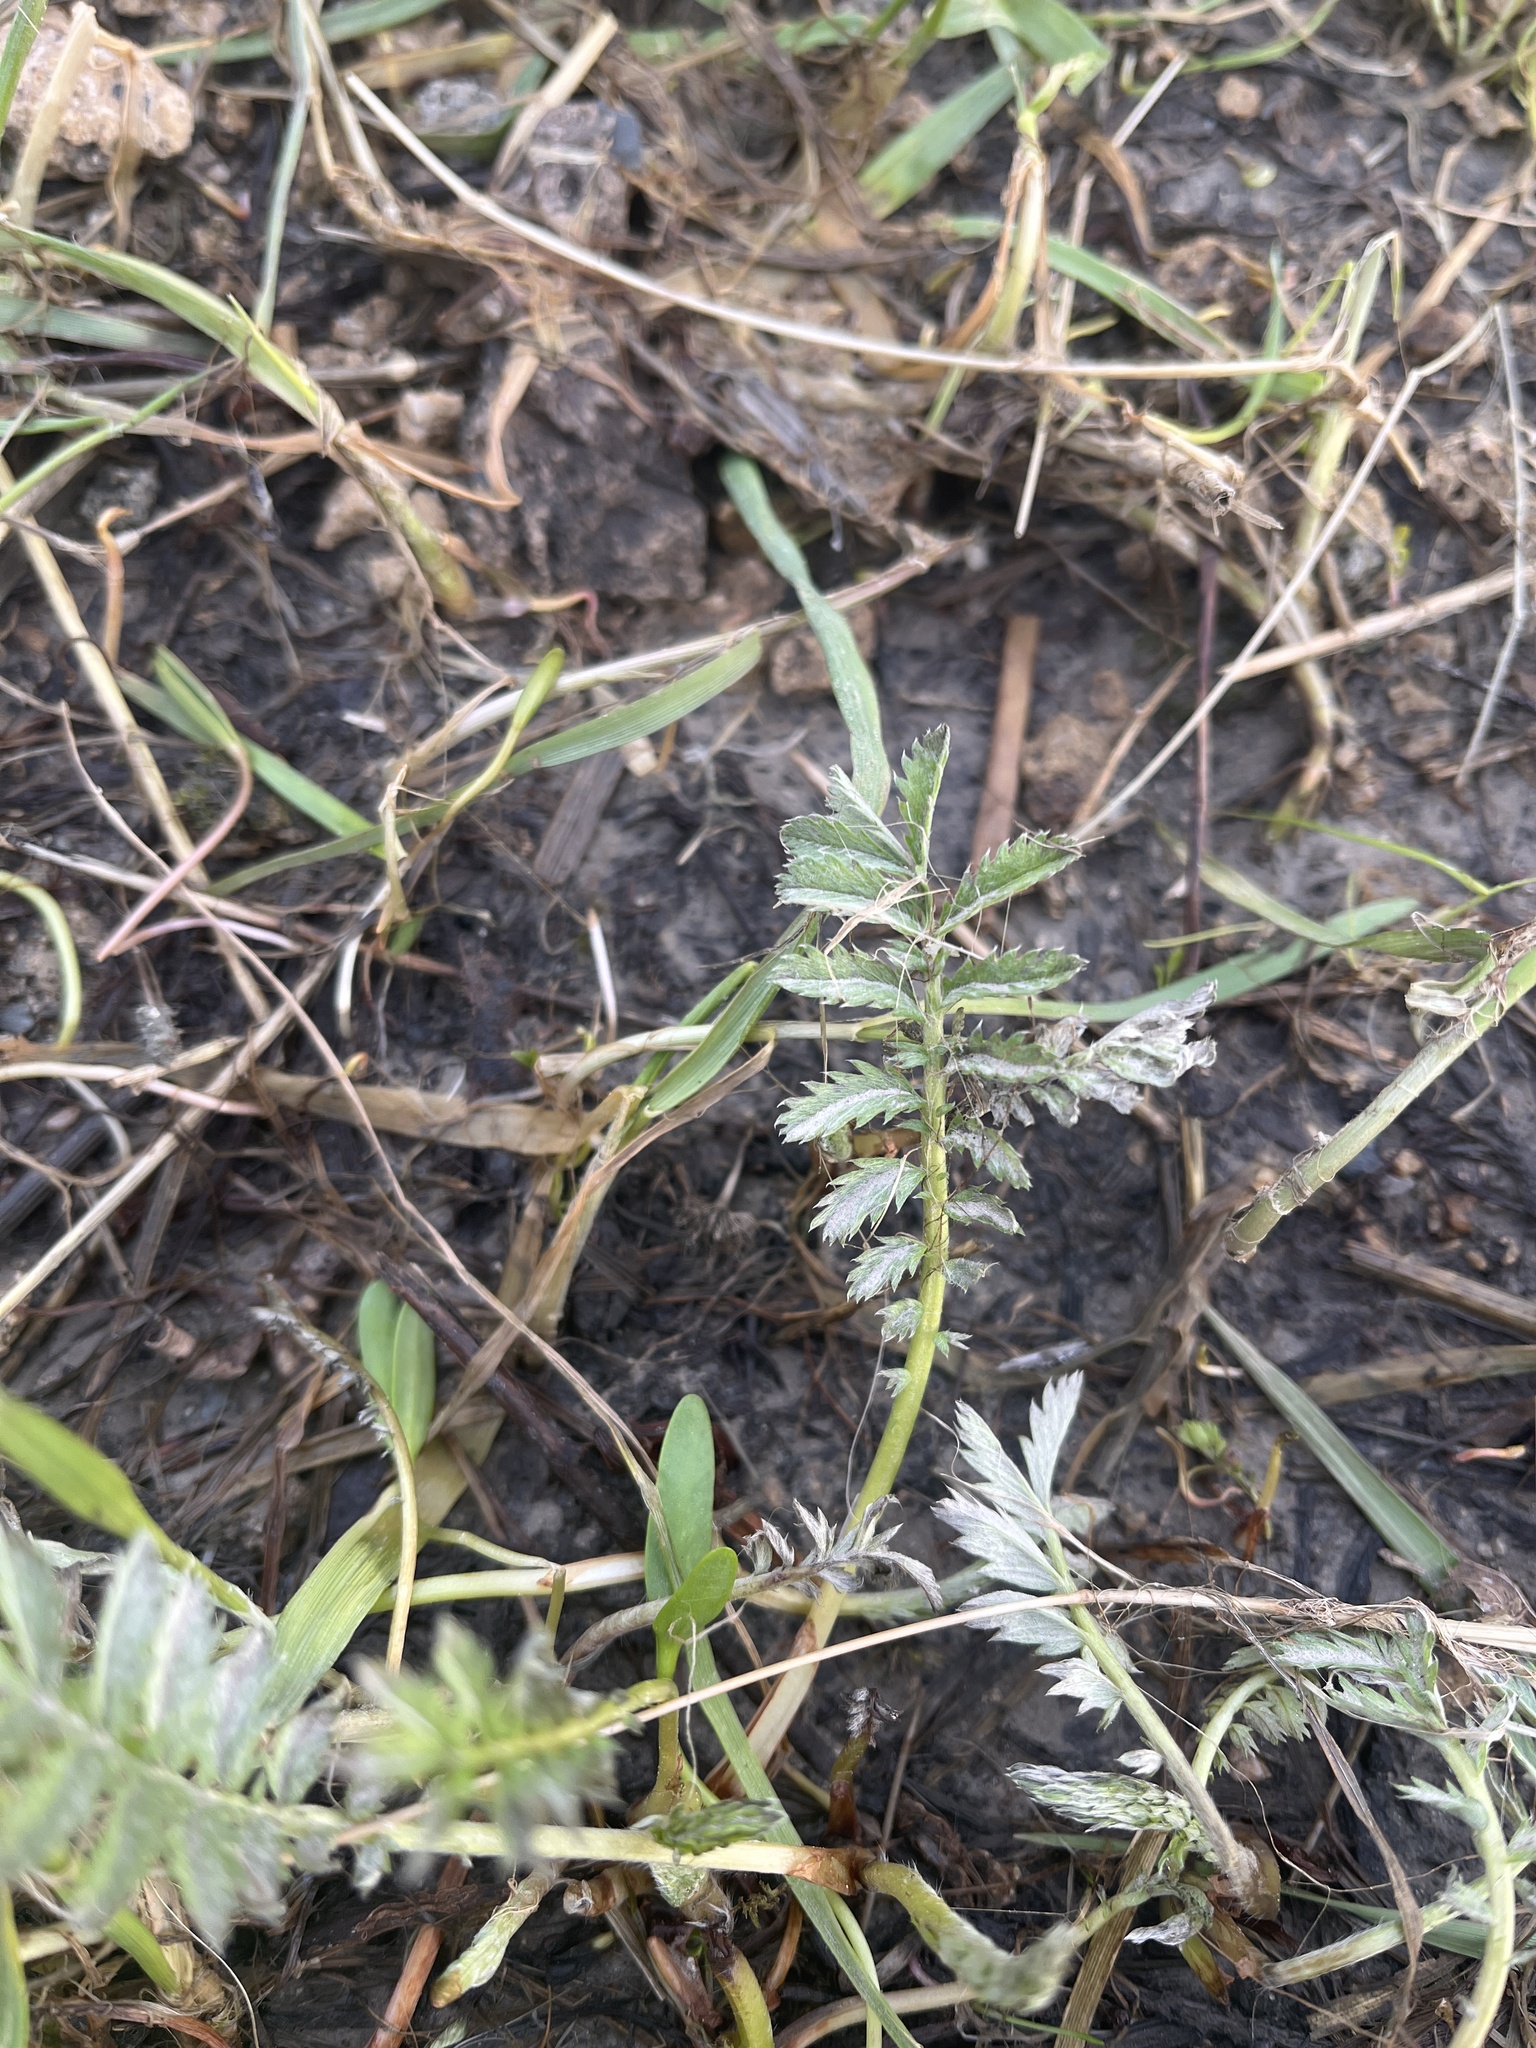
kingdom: Plantae
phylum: Tracheophyta
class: Magnoliopsida
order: Rosales
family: Rosaceae
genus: Argentina
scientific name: Argentina anserina
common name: Common silverweed
